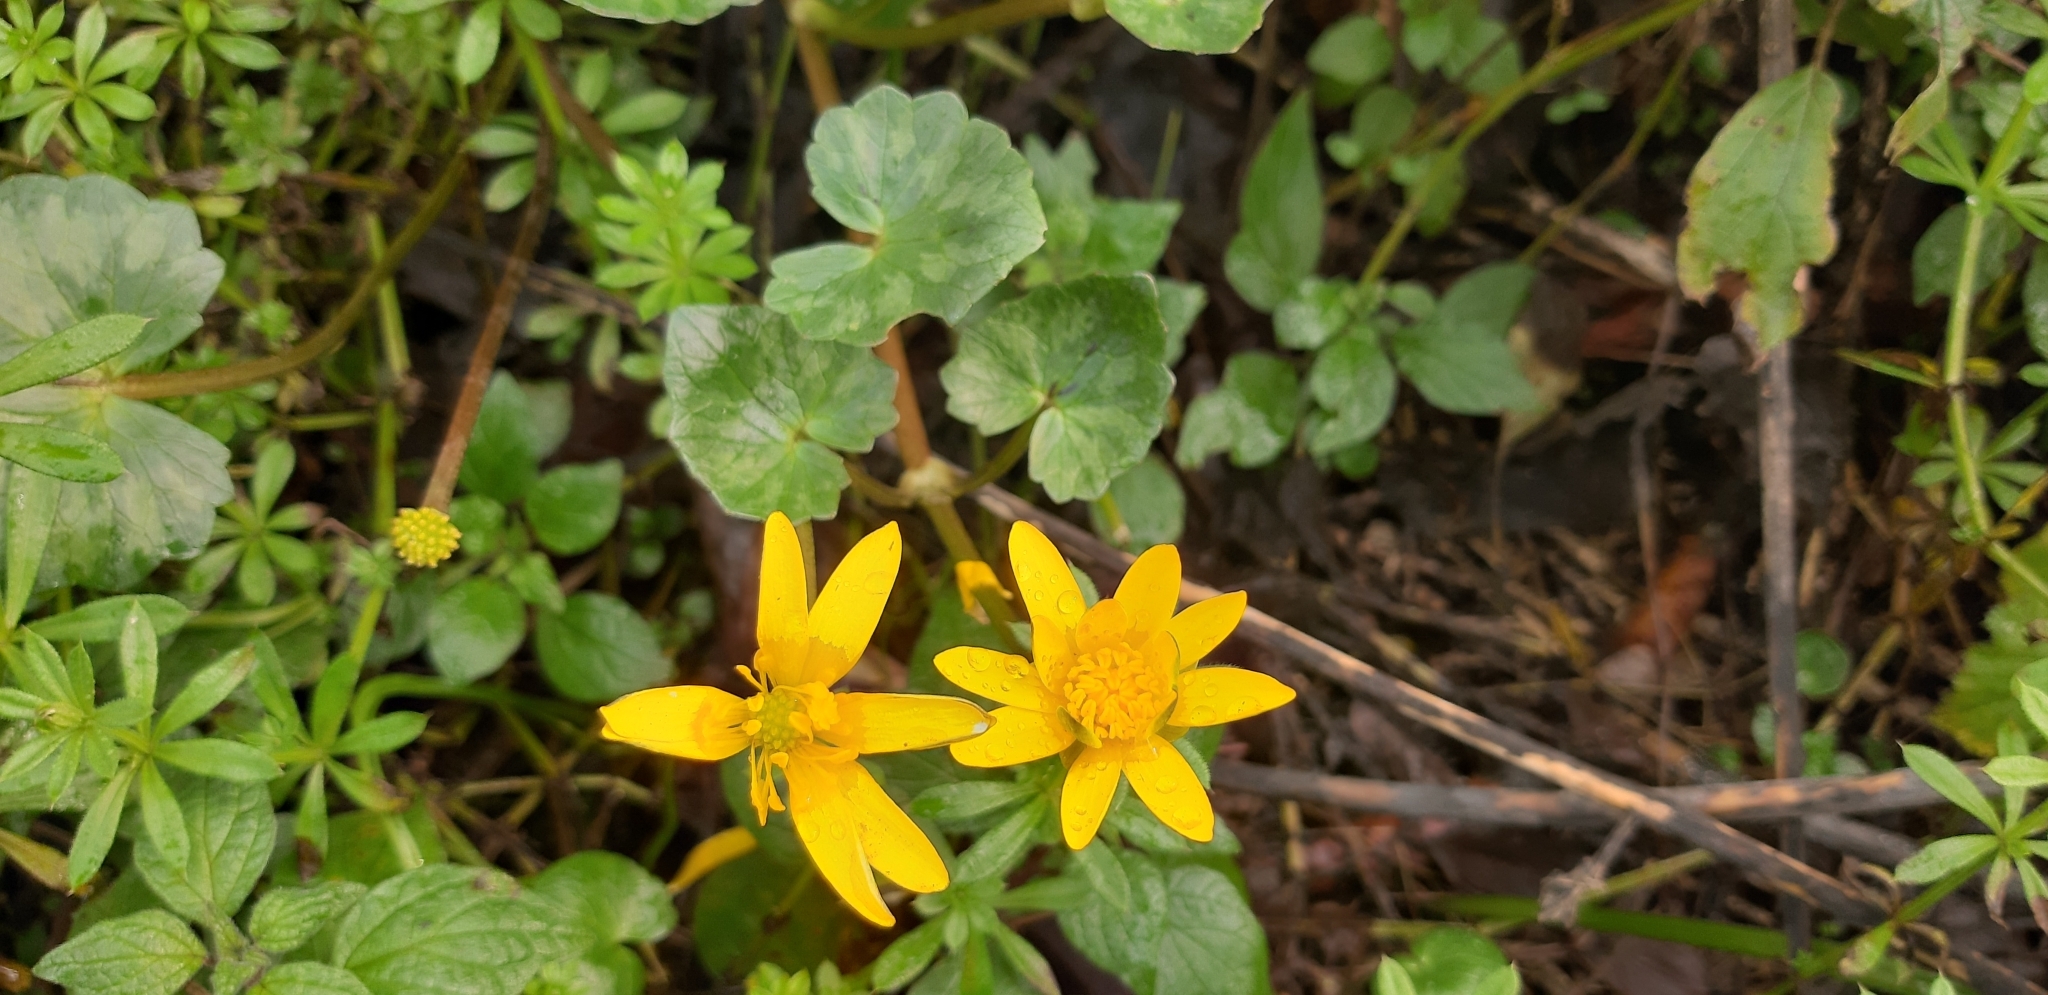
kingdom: Plantae
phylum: Tracheophyta
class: Magnoliopsida
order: Ranunculales
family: Ranunculaceae
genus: Ficaria
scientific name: Ficaria verna
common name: Lesser celandine
